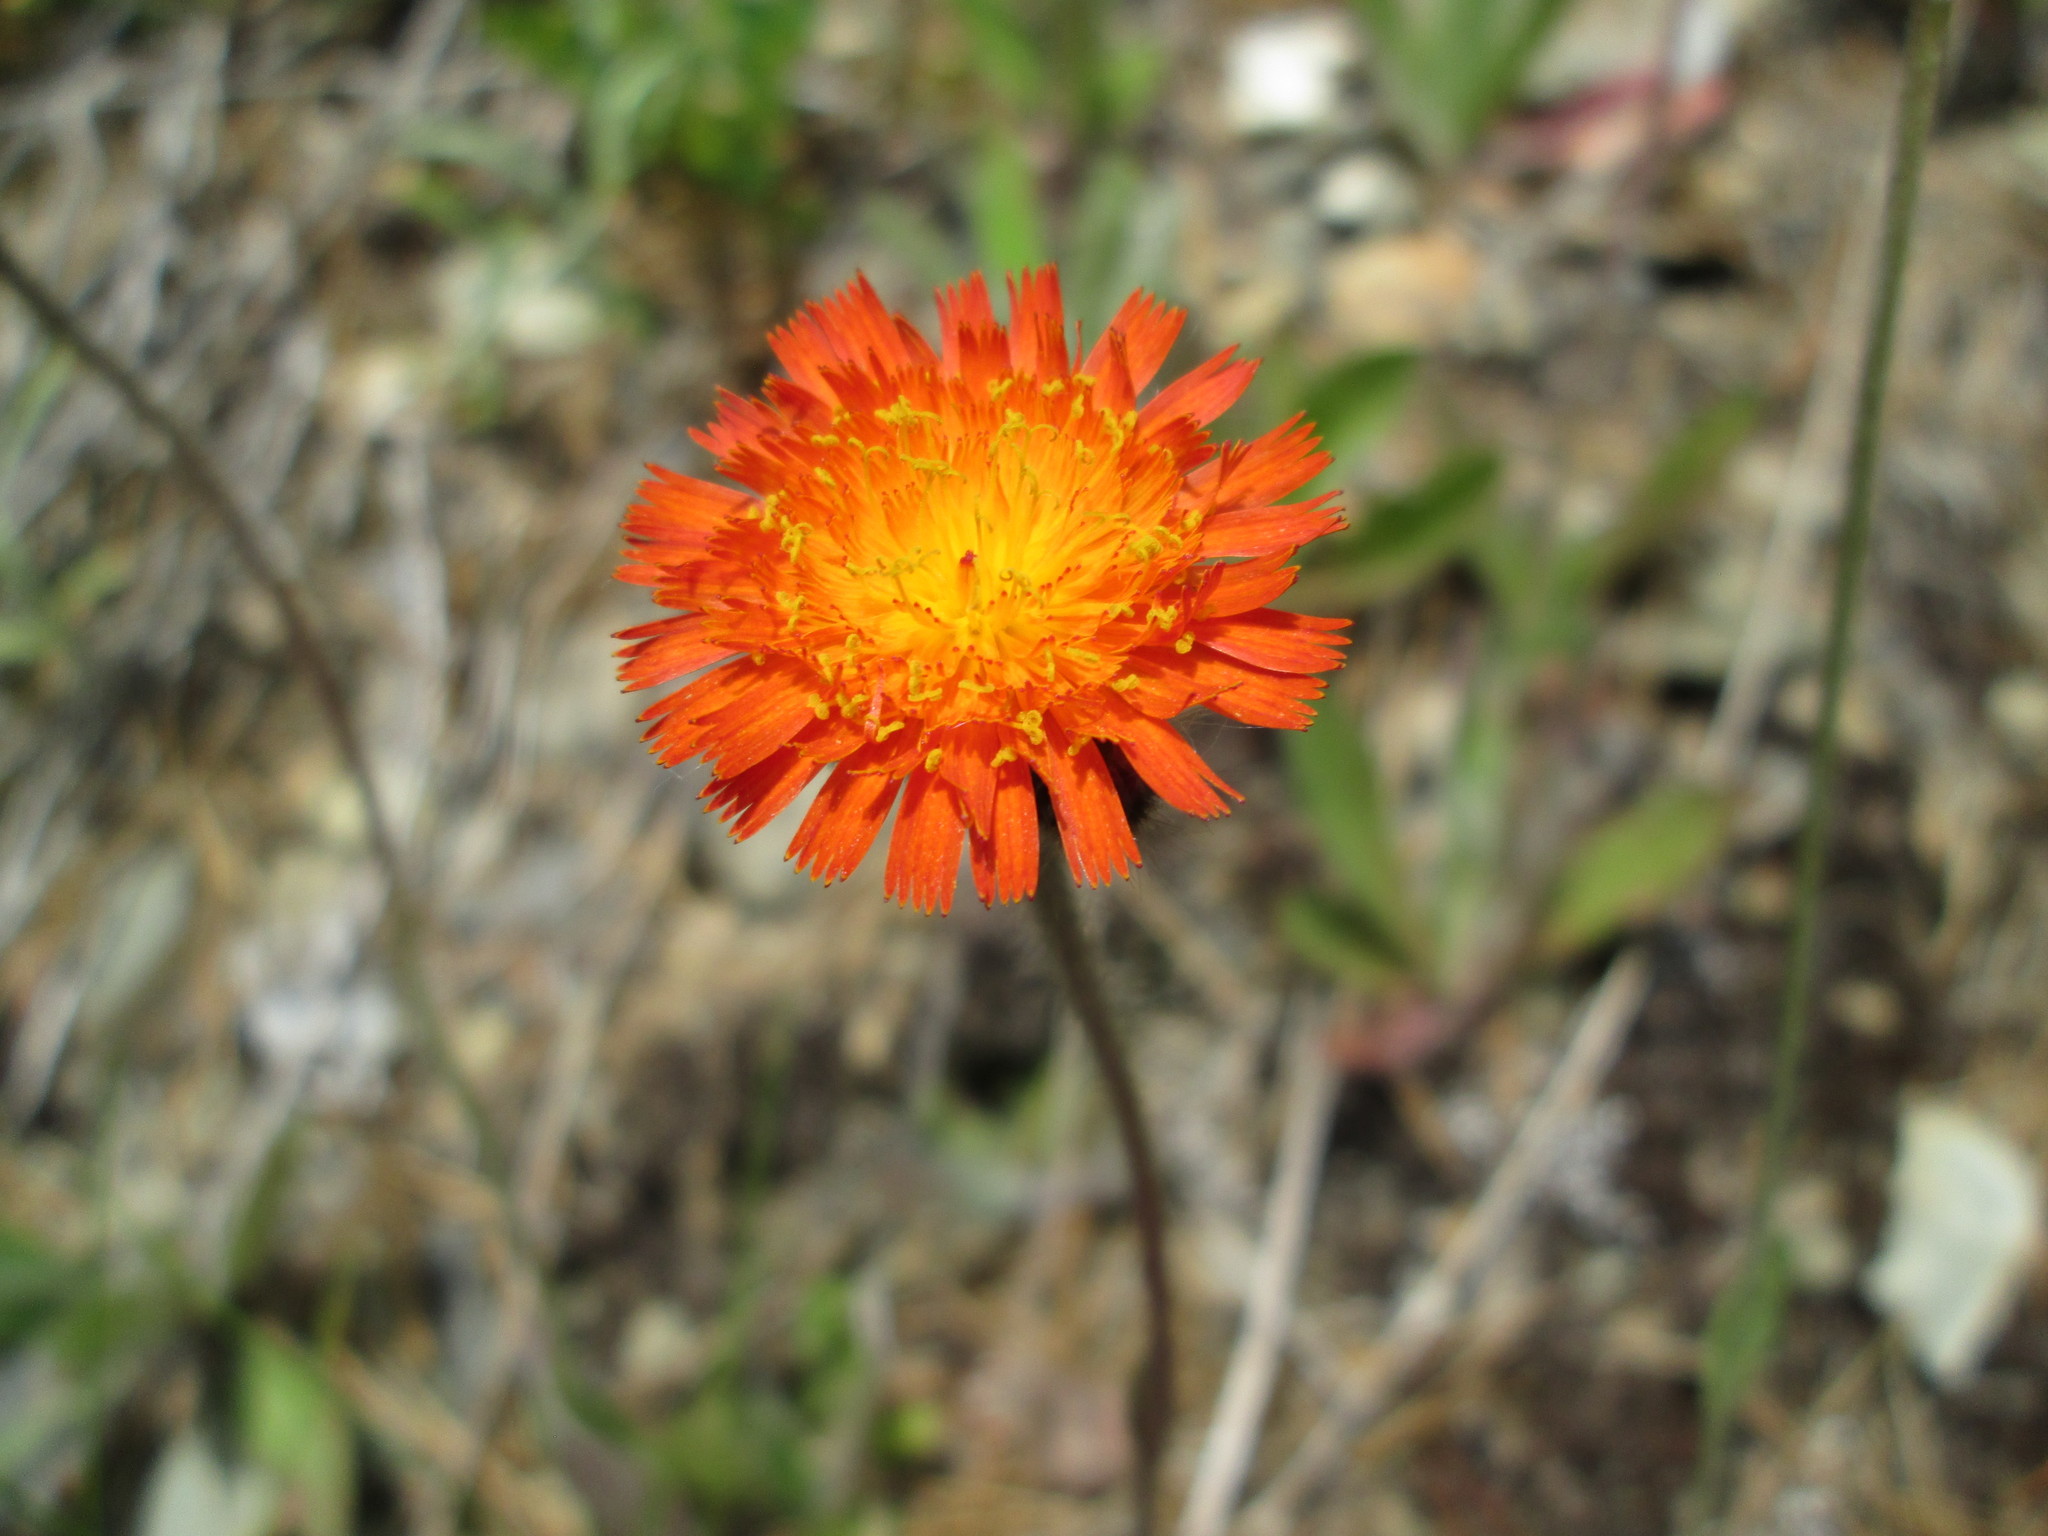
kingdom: Plantae
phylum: Tracheophyta
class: Magnoliopsida
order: Asterales
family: Asteraceae
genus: Pilosella
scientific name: Pilosella aurantiaca
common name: Fox-and-cubs
